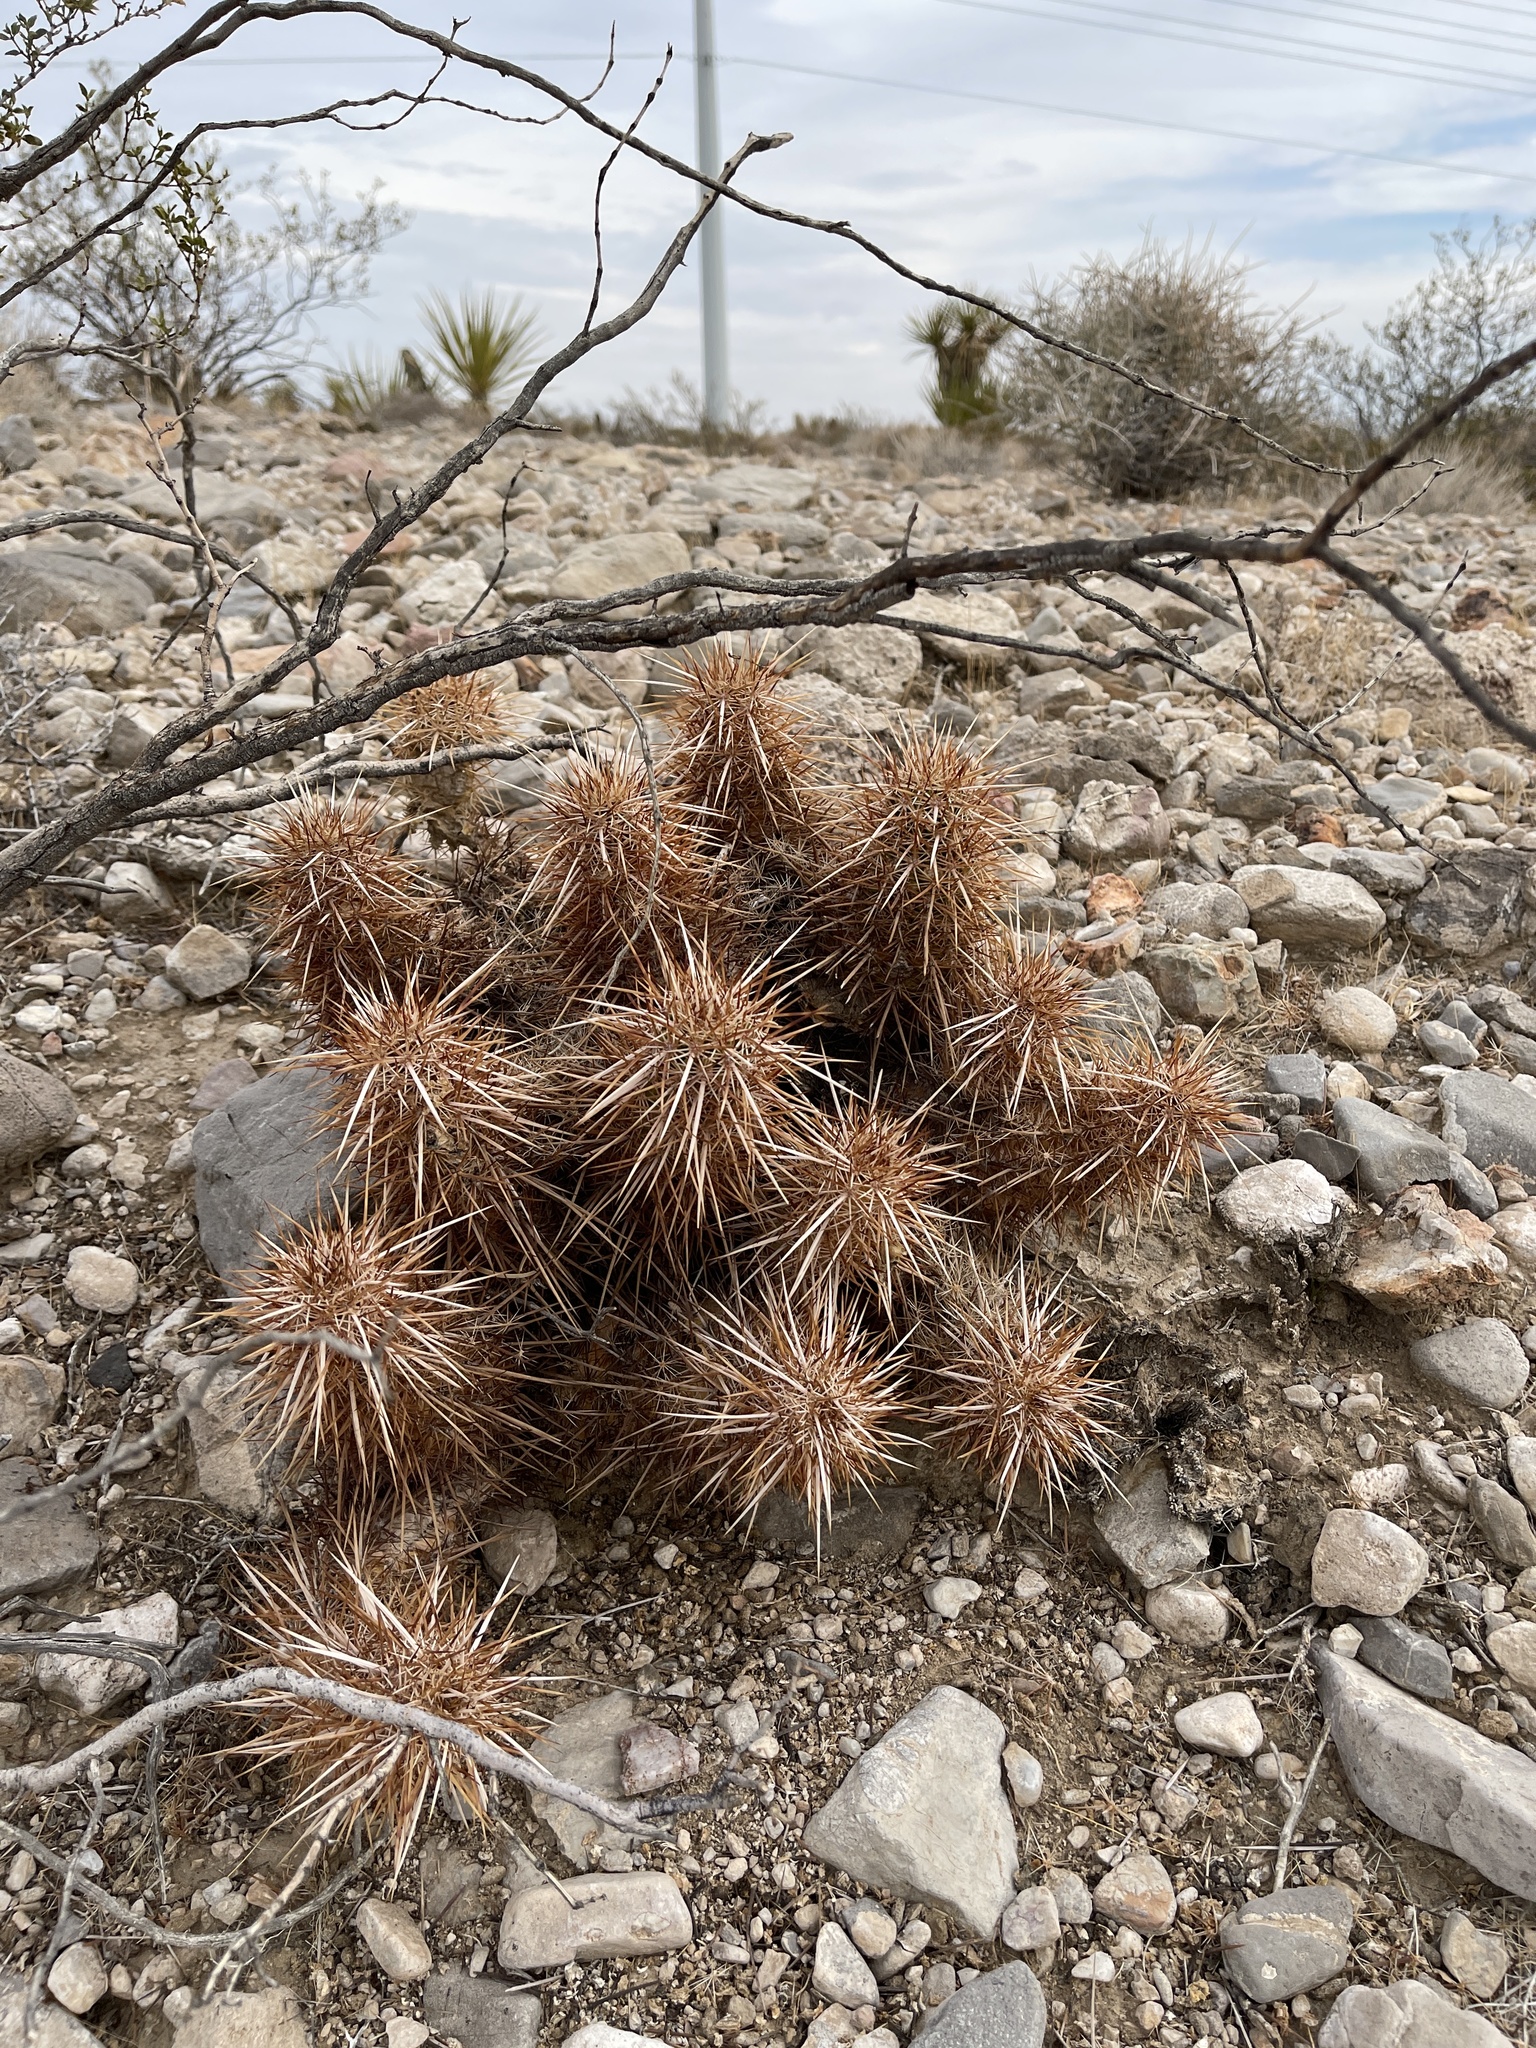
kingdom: Plantae
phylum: Tracheophyta
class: Magnoliopsida
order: Caryophyllales
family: Cactaceae
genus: Echinocereus
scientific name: Echinocereus engelmannii
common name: Engelmann's hedgehog cactus
